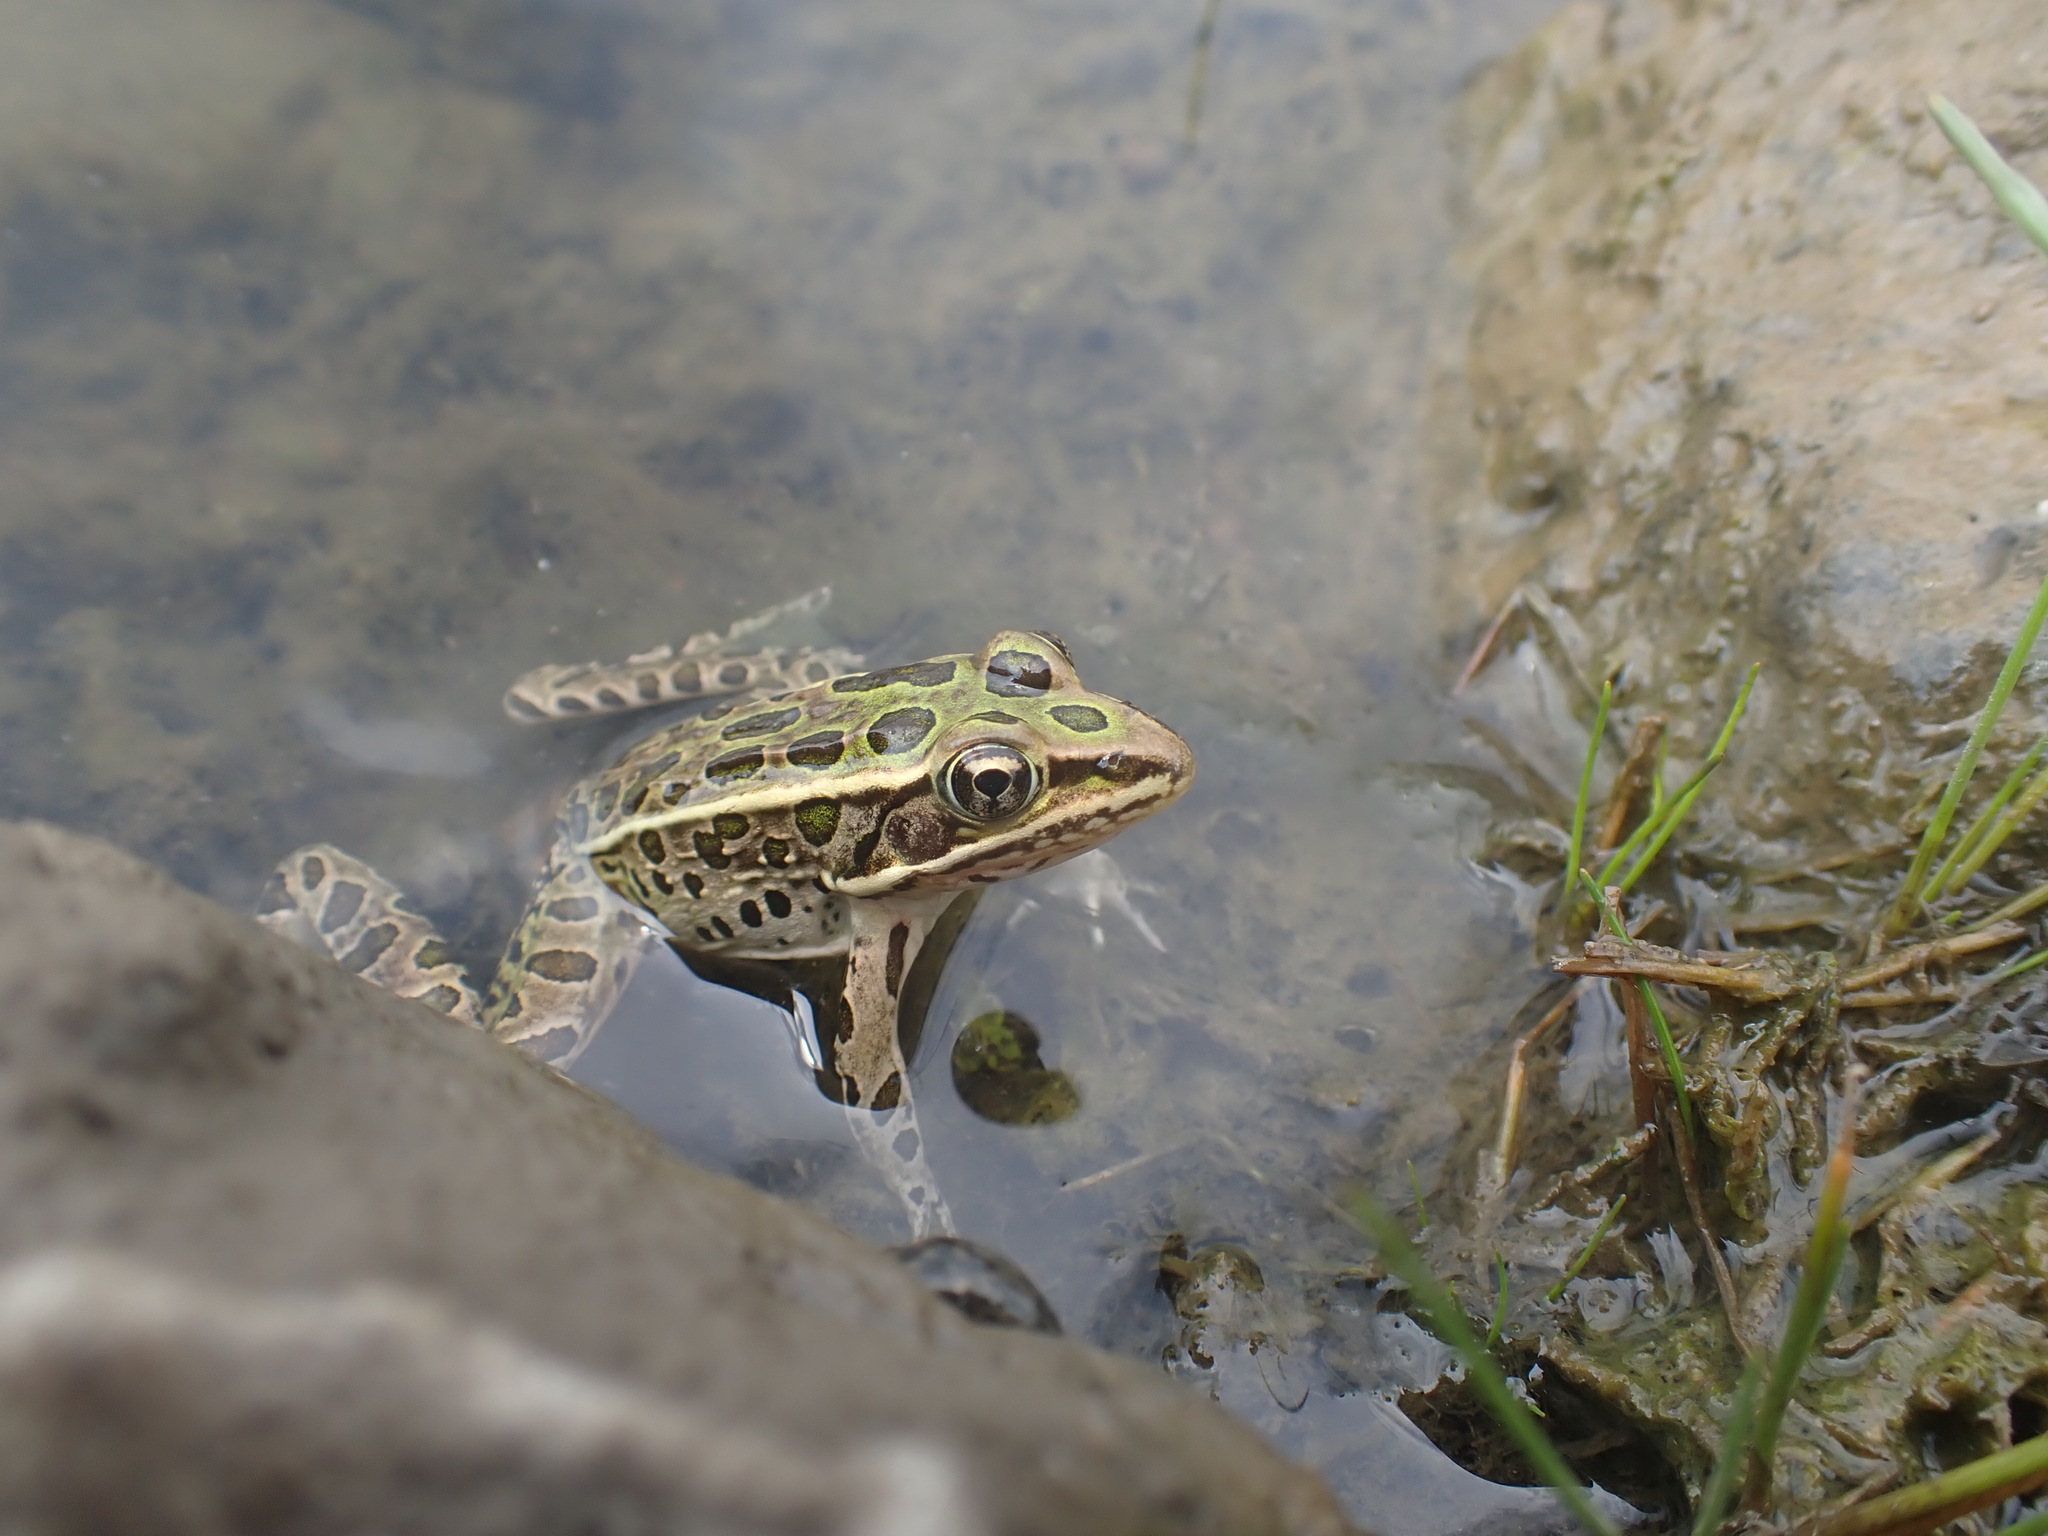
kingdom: Animalia
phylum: Chordata
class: Amphibia
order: Anura
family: Ranidae
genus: Lithobates
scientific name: Lithobates pipiens
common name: Northern leopard frog
